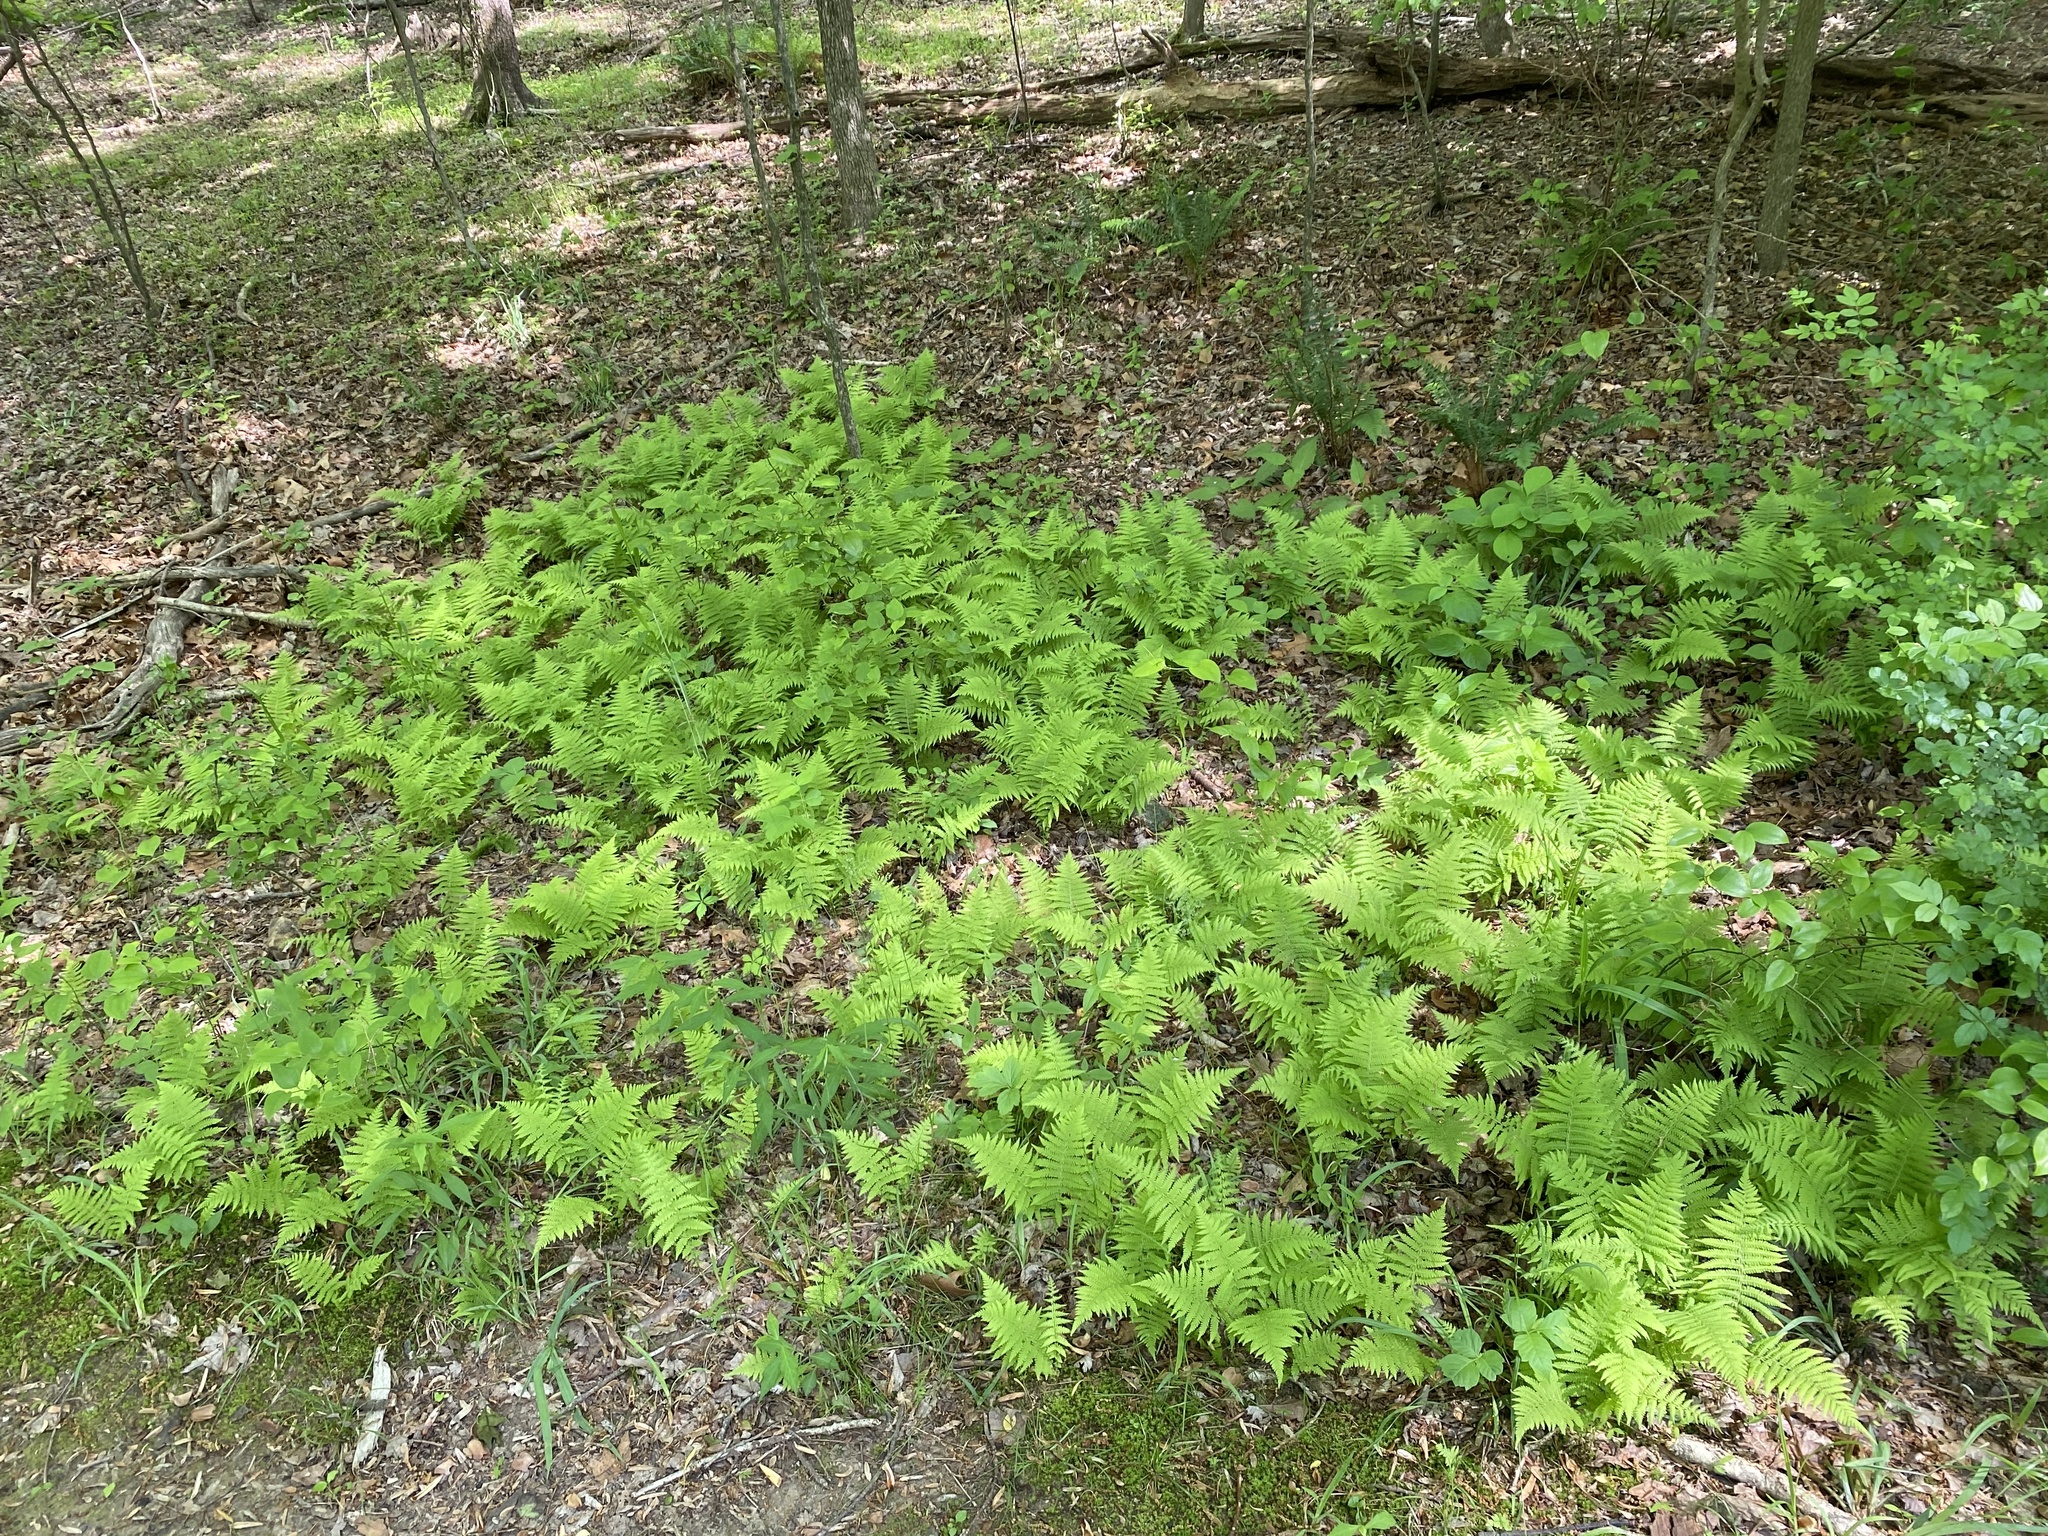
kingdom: Plantae
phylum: Tracheophyta
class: Polypodiopsida
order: Polypodiales
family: Thelypteridaceae
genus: Amauropelta
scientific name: Amauropelta noveboracensis
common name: New york fern
